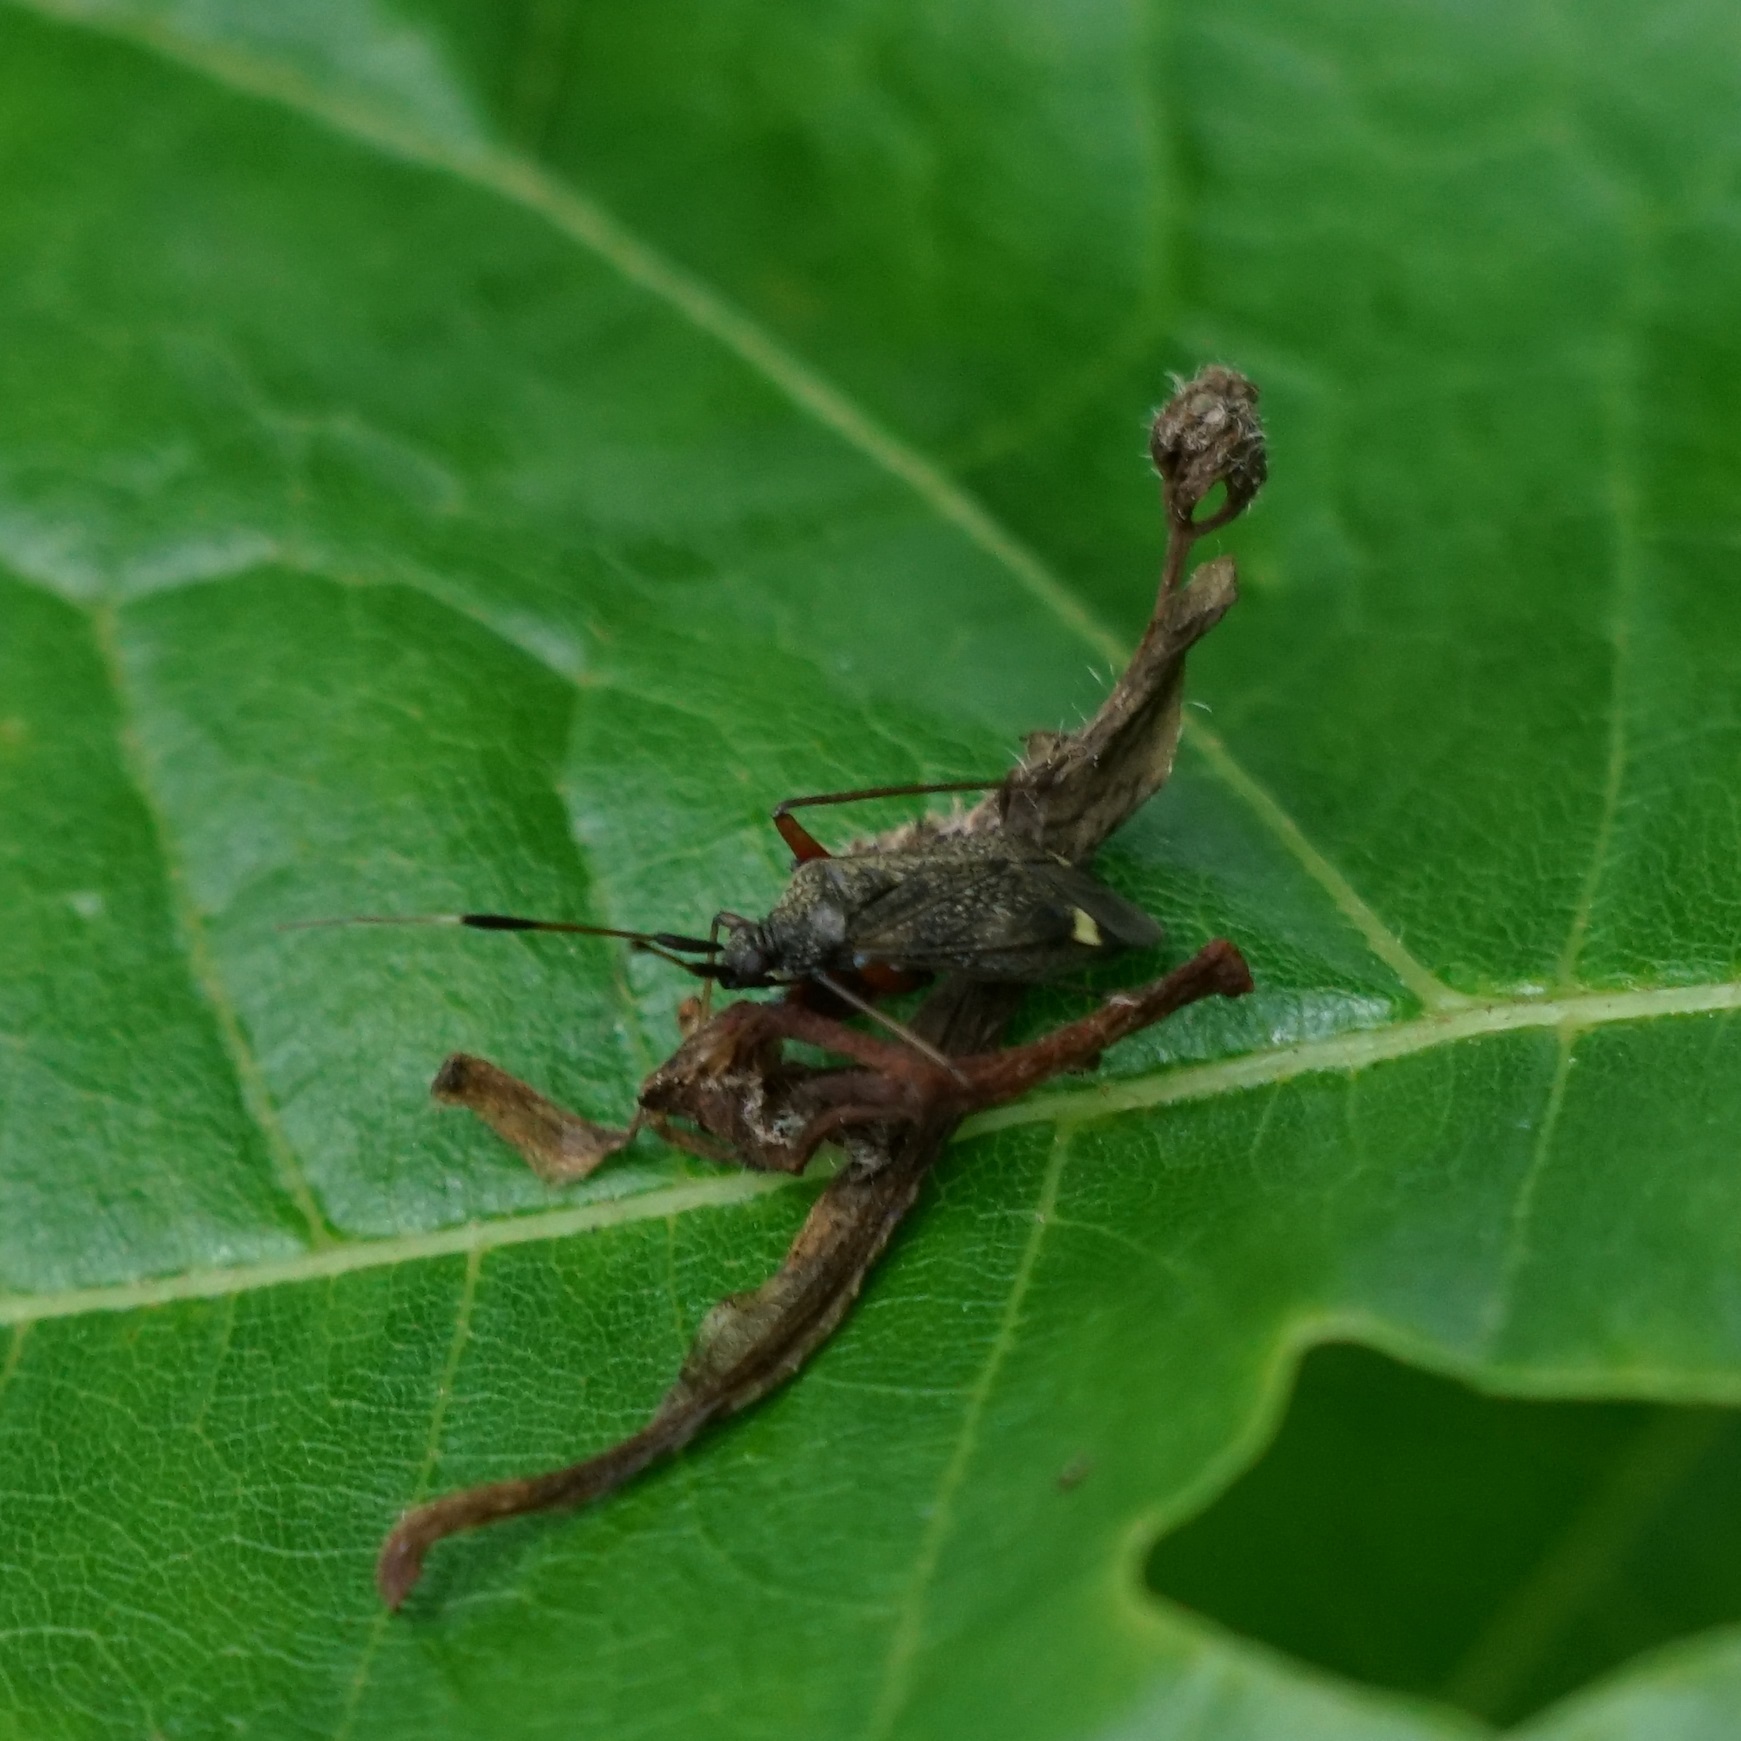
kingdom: Animalia
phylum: Arthropoda
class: Insecta
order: Hemiptera
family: Miridae
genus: Closterotomus
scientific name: Closterotomus biclavatus
